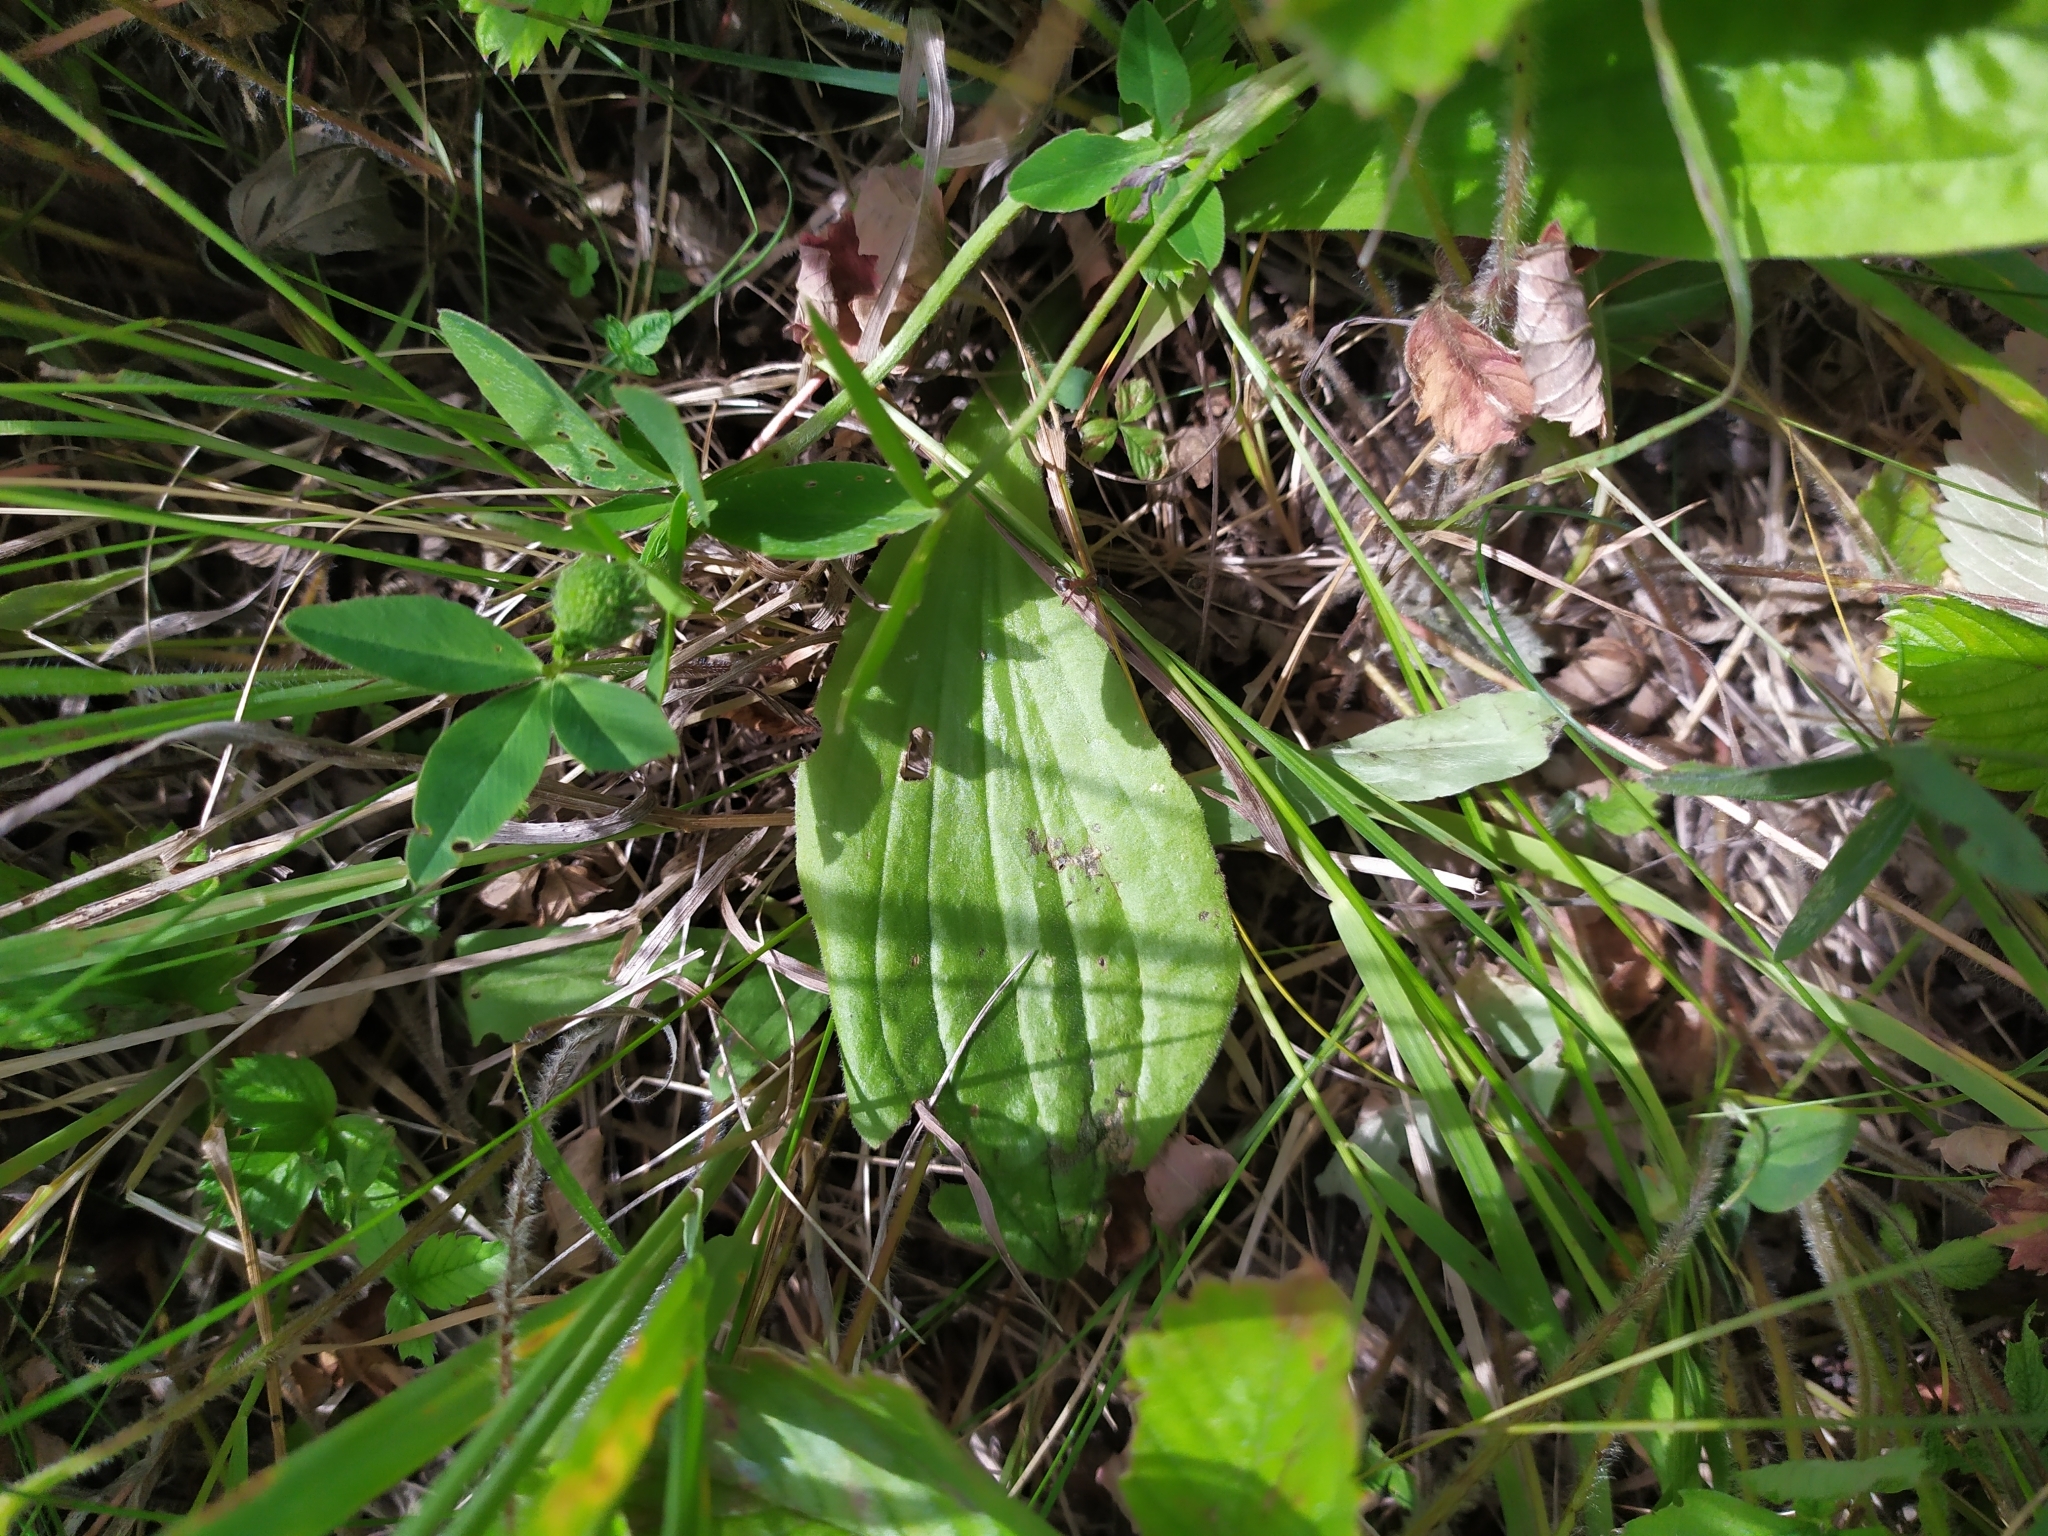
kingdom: Plantae
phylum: Tracheophyta
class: Magnoliopsida
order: Lamiales
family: Plantaginaceae
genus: Plantago
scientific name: Plantago media
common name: Hoary plantain
